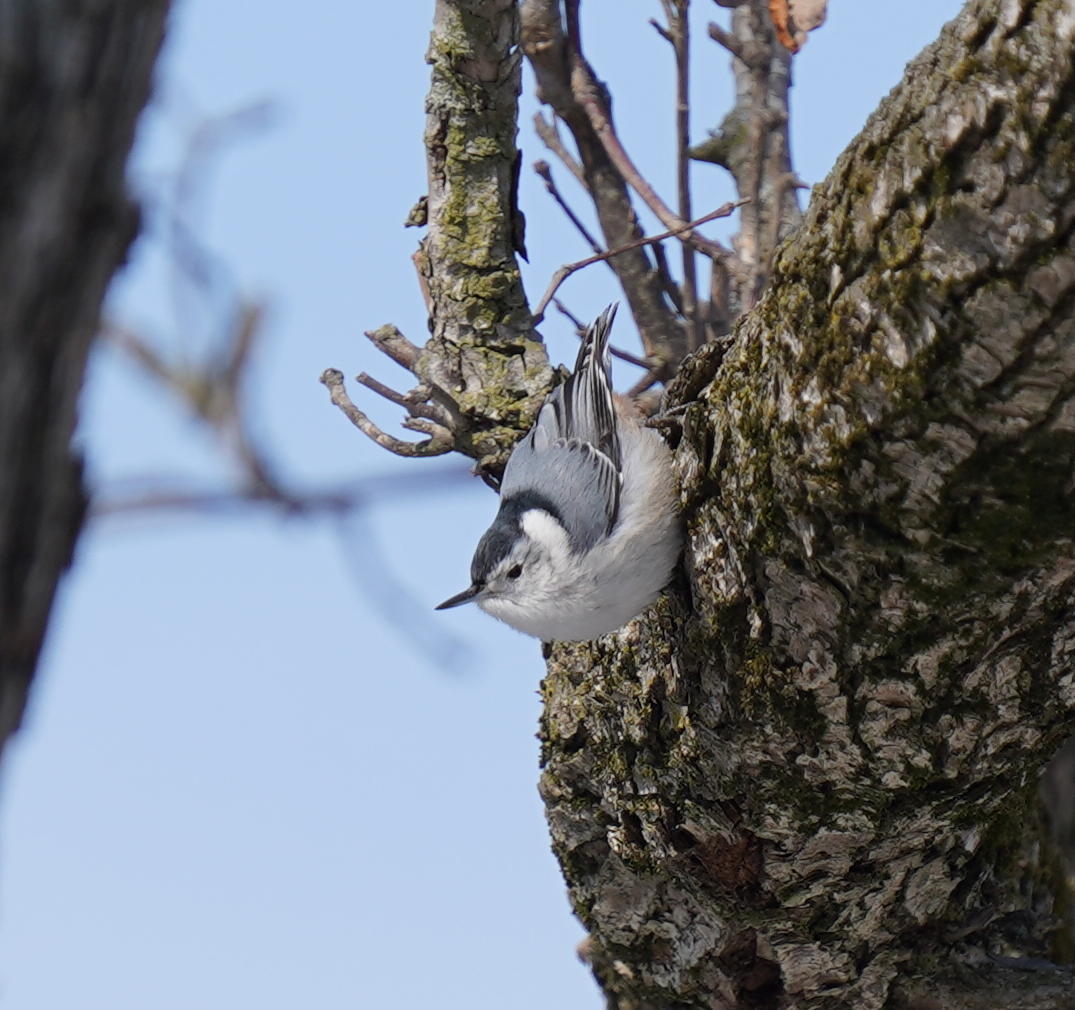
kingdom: Animalia
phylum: Chordata
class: Aves
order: Passeriformes
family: Sittidae
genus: Sitta
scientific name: Sitta carolinensis
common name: White-breasted nuthatch
